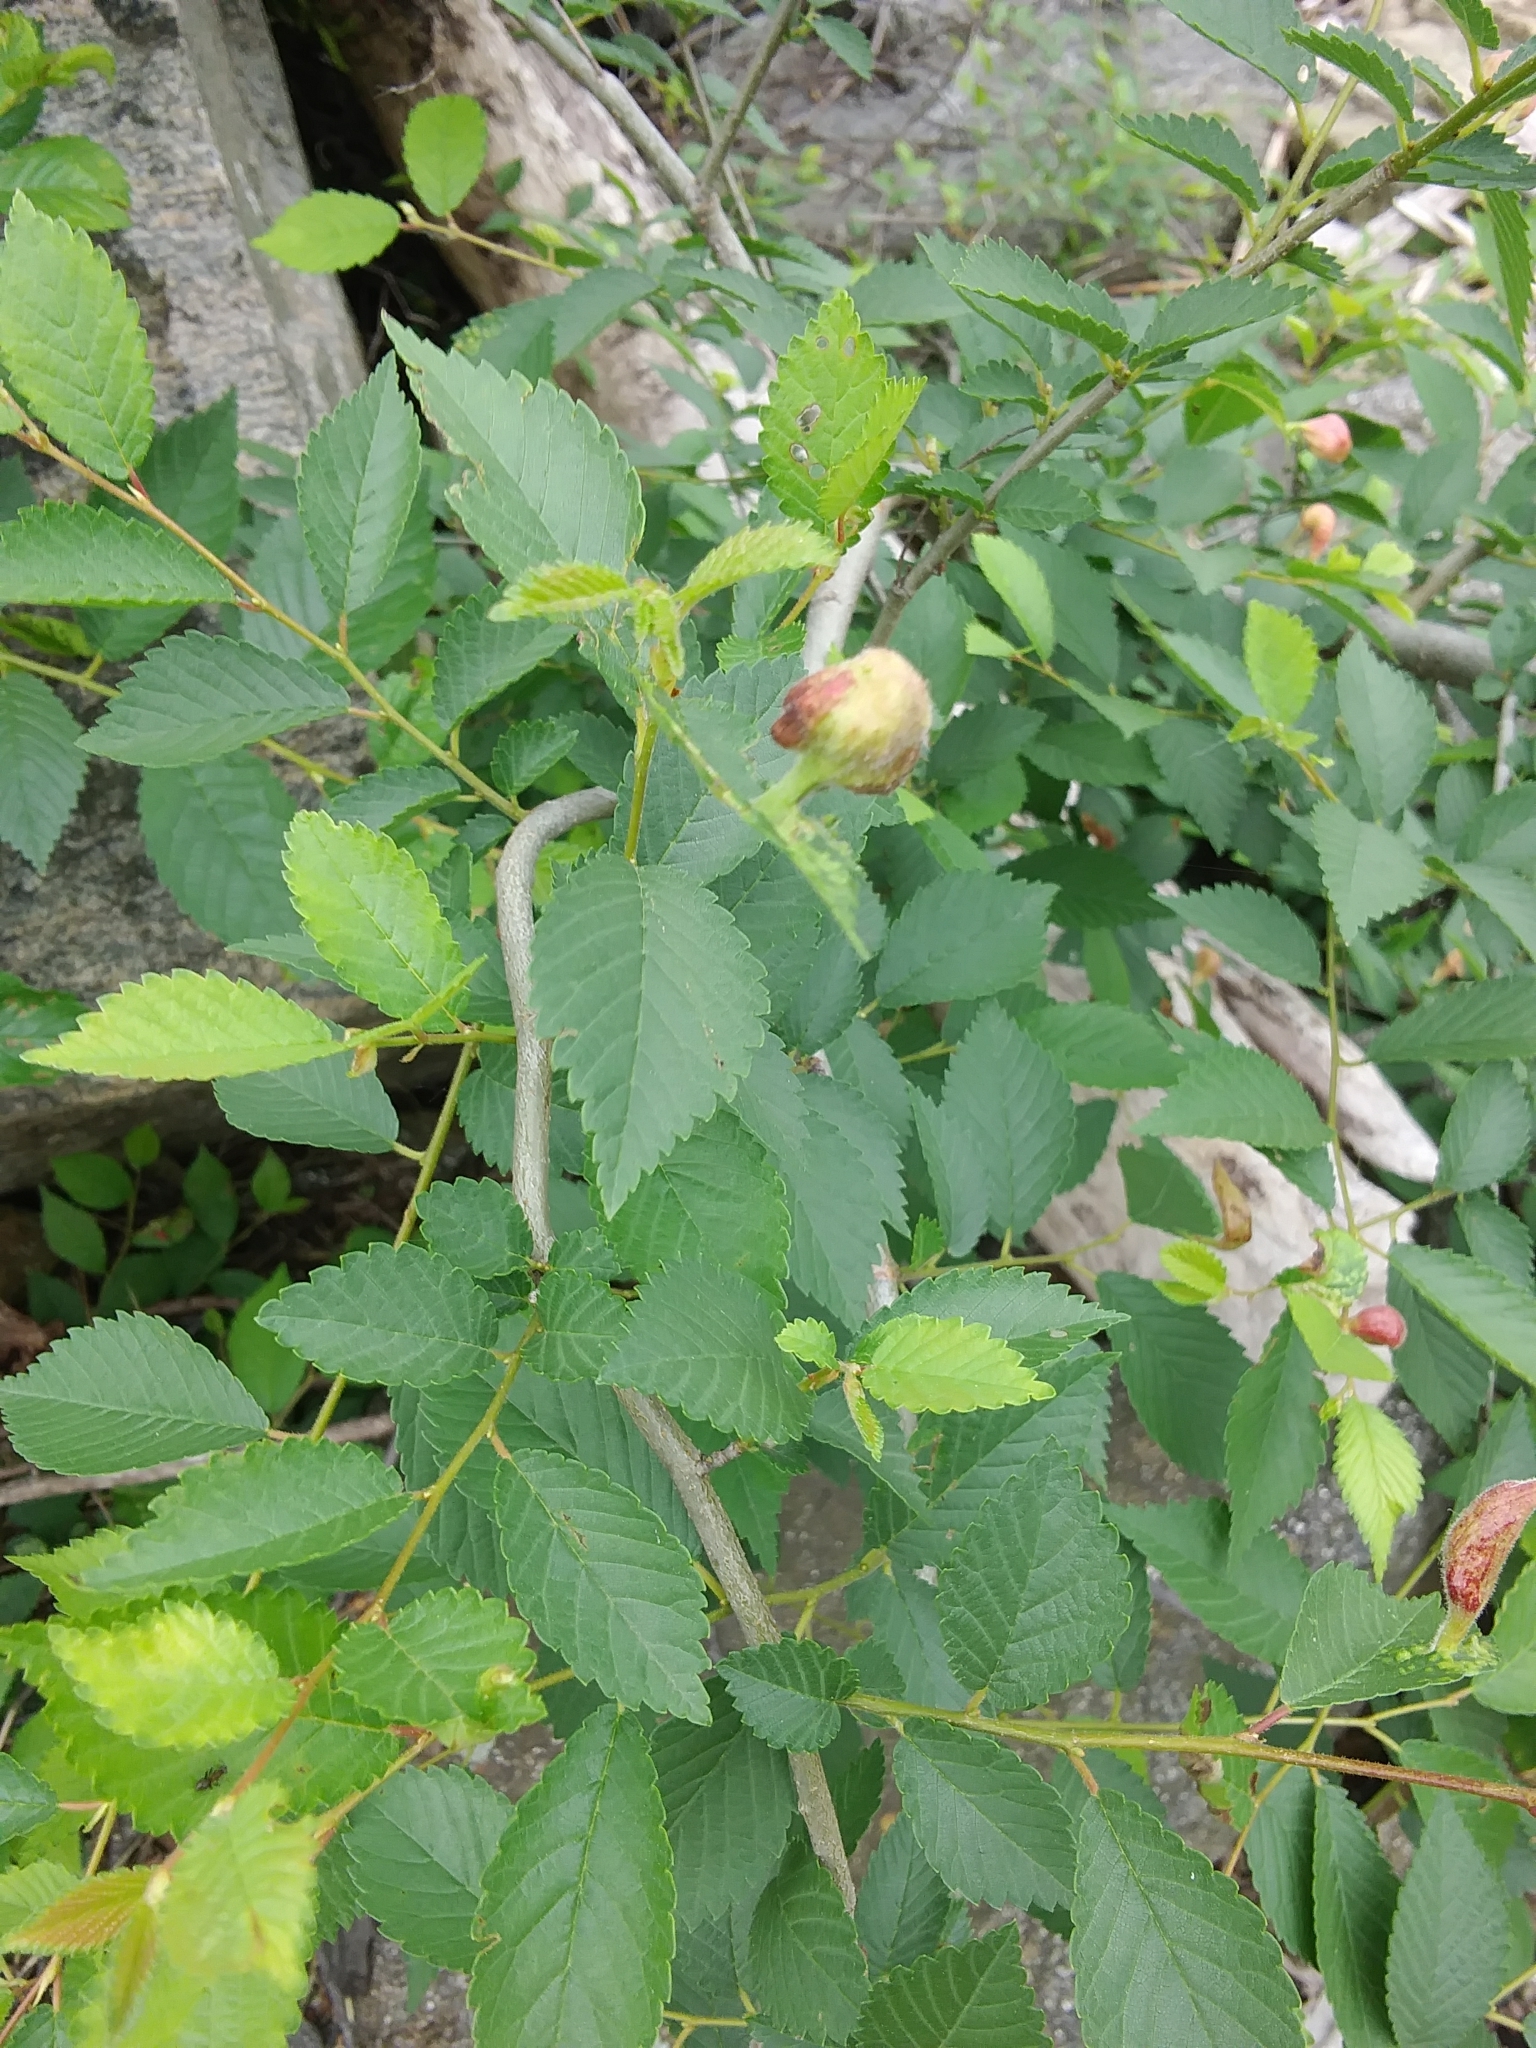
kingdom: Animalia
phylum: Arthropoda
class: Insecta
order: Hemiptera
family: Aphididae
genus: Tetraneura
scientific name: Tetraneura nigriabdominalis
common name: Aphid
